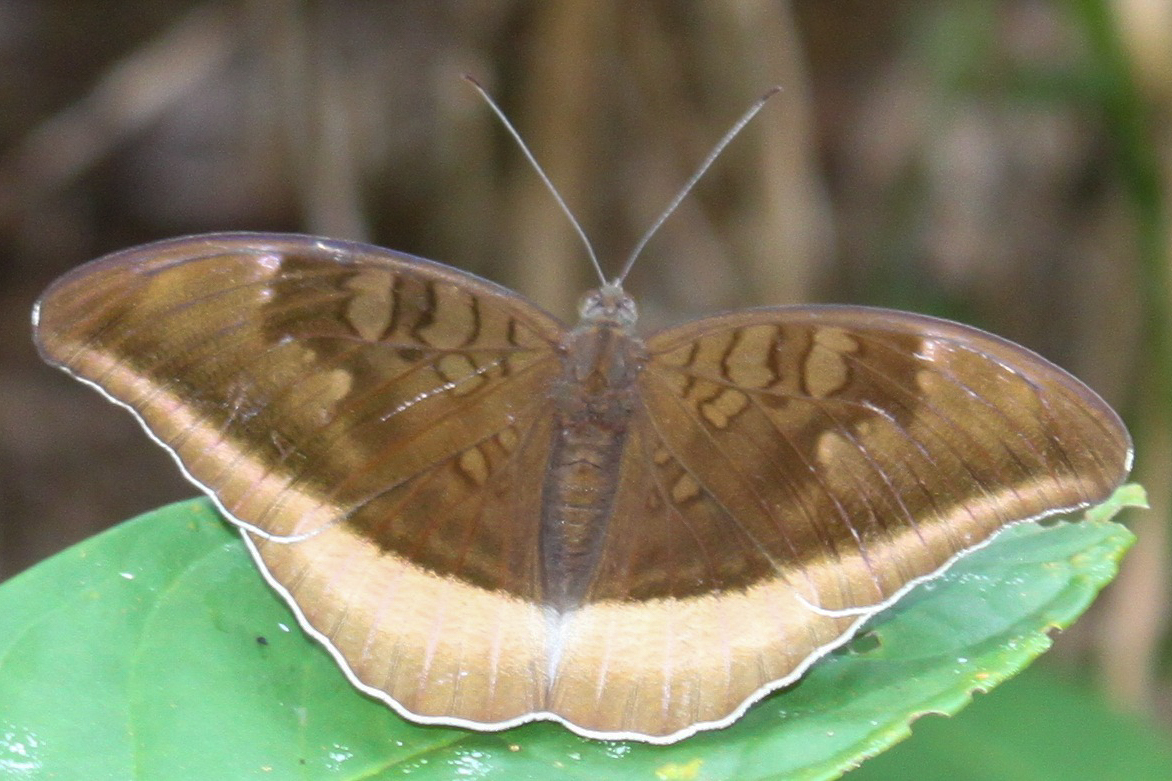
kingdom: Animalia
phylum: Arthropoda
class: Insecta
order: Lepidoptera
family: Nymphalidae
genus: Tanaecia
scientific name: Tanaecia lepidea
